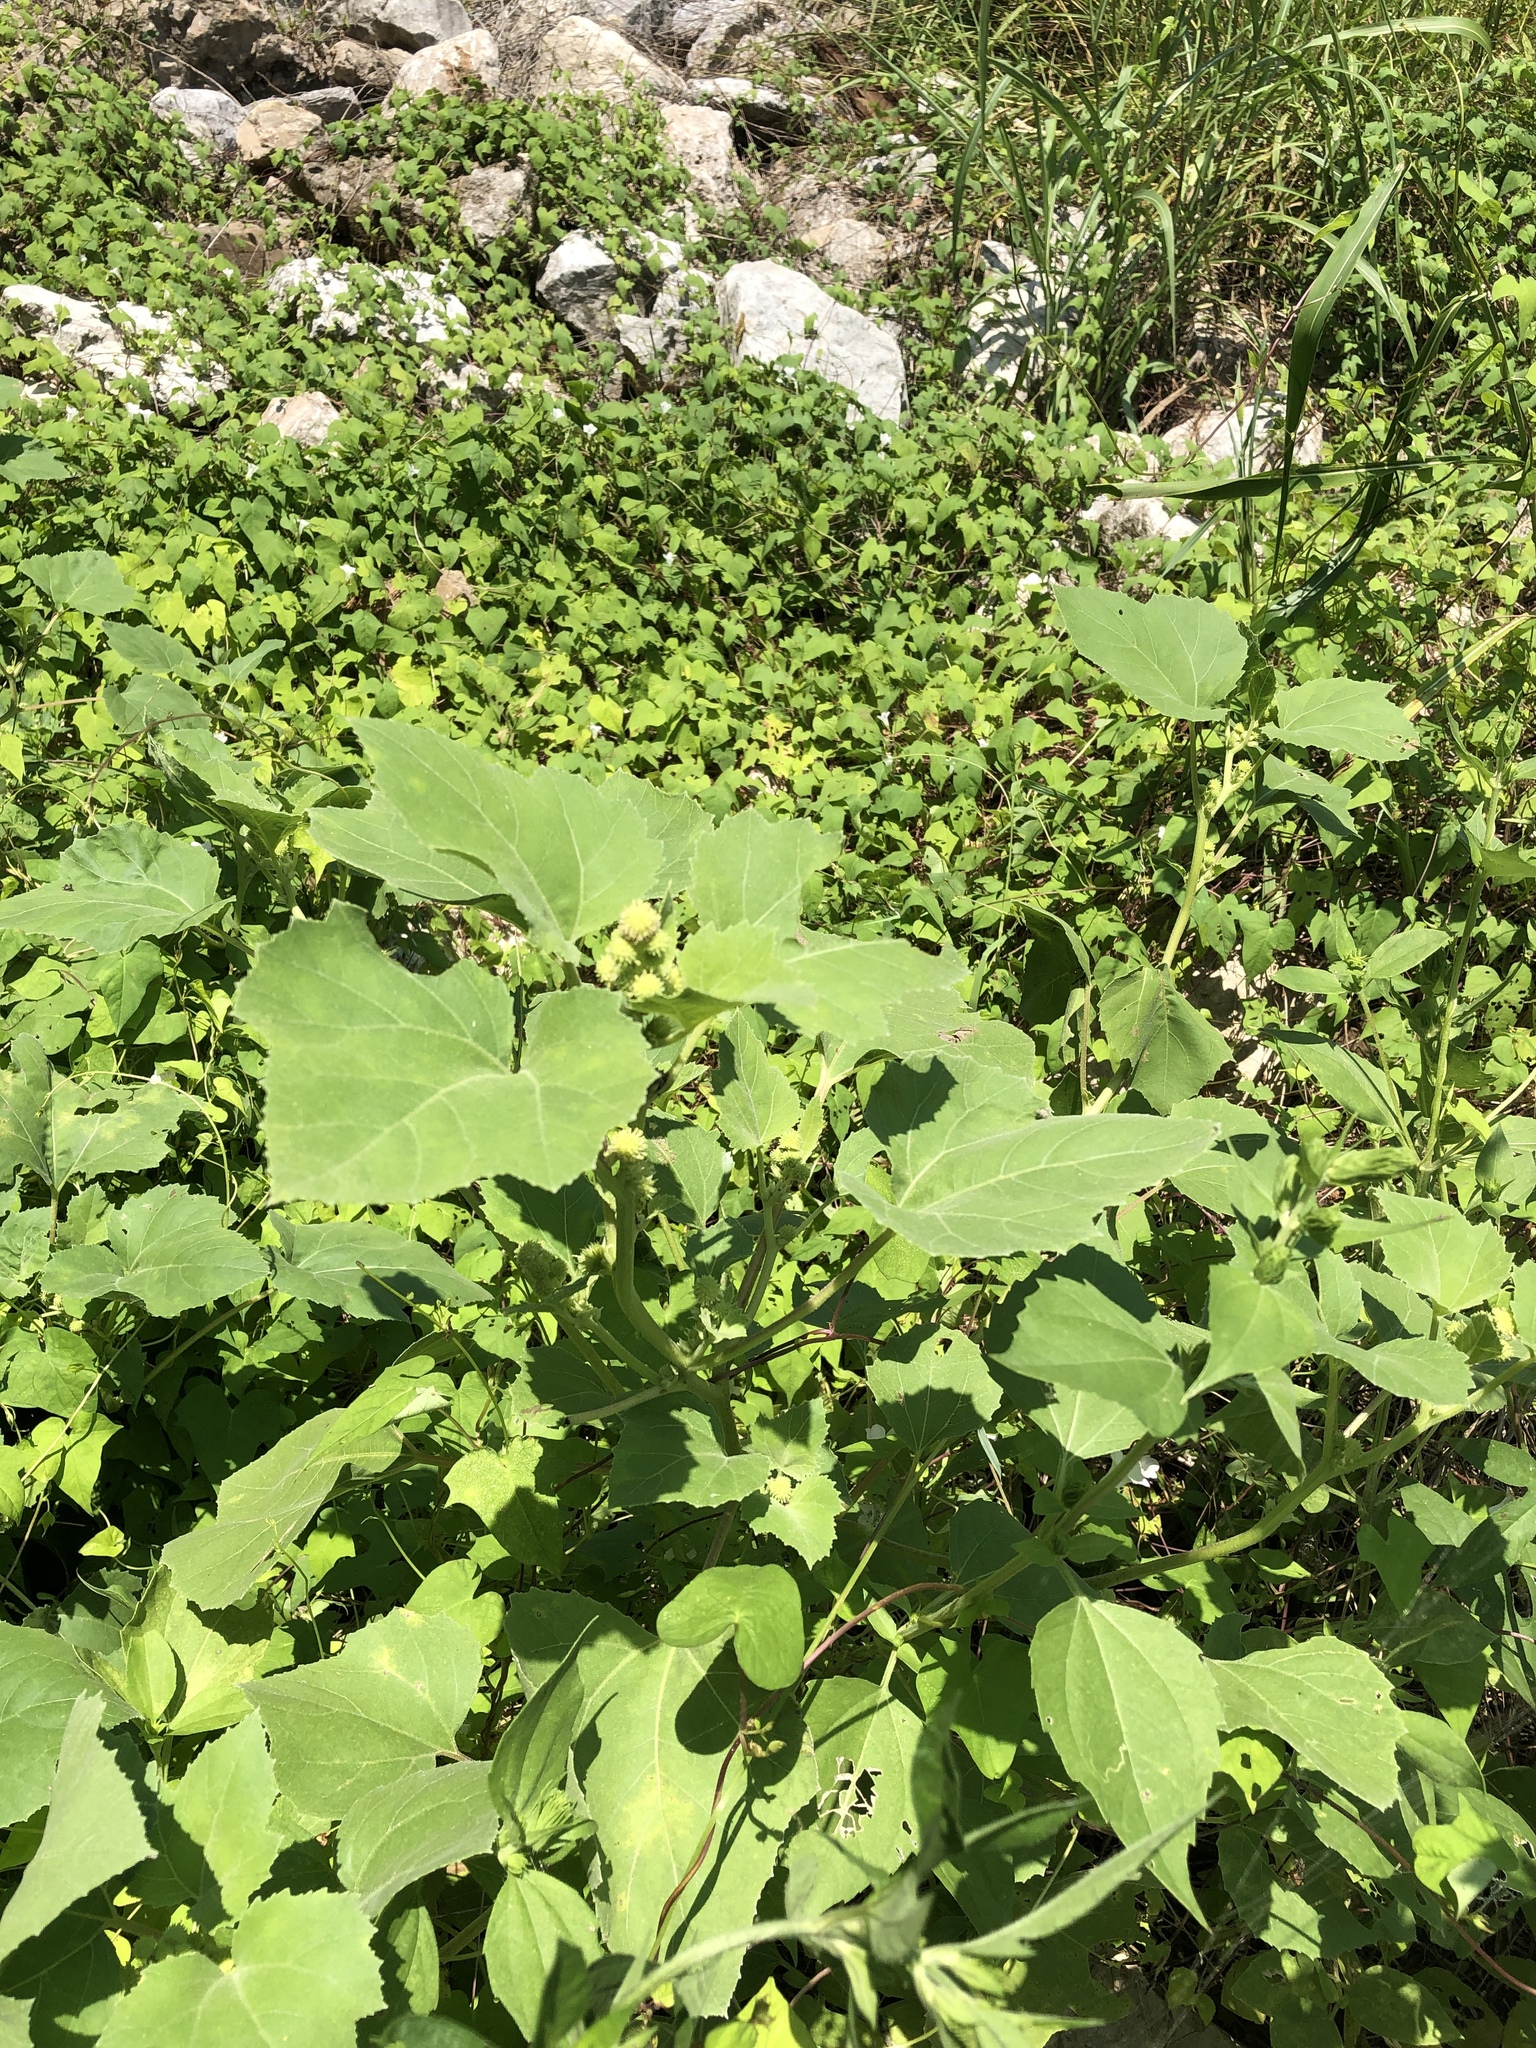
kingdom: Plantae
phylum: Tracheophyta
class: Magnoliopsida
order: Asterales
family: Asteraceae
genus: Xanthium
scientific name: Xanthium strumarium
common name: Rough cocklebur
